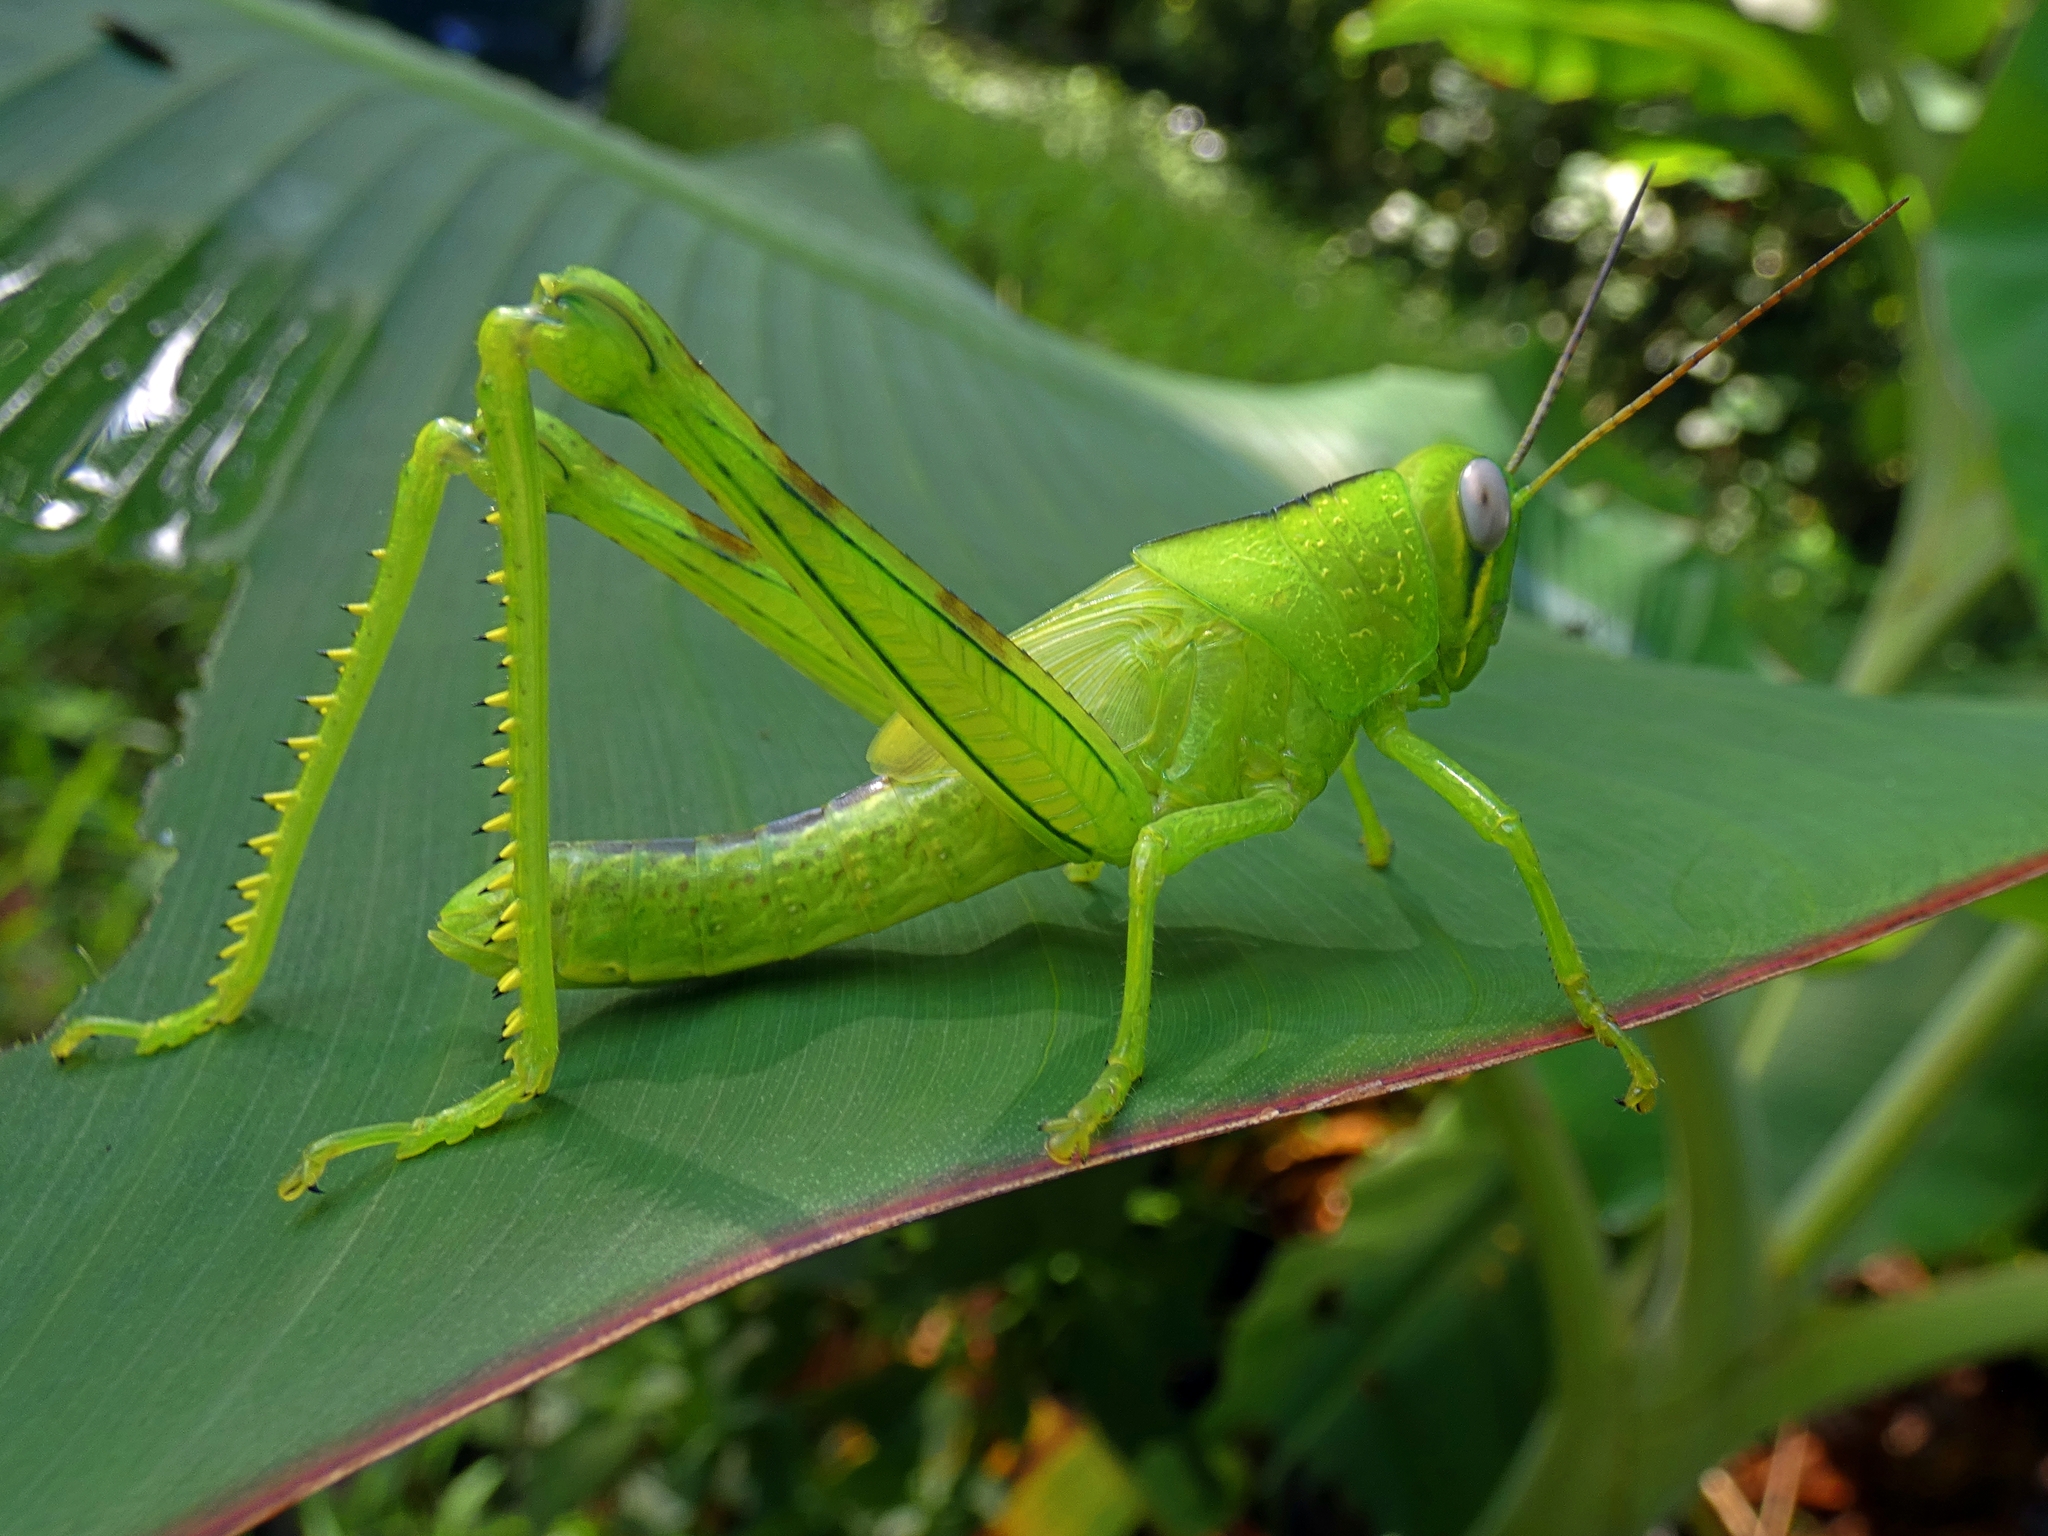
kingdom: Animalia
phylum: Arthropoda
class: Insecta
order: Orthoptera
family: Acrididae
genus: Valanga
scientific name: Valanga irregularis
